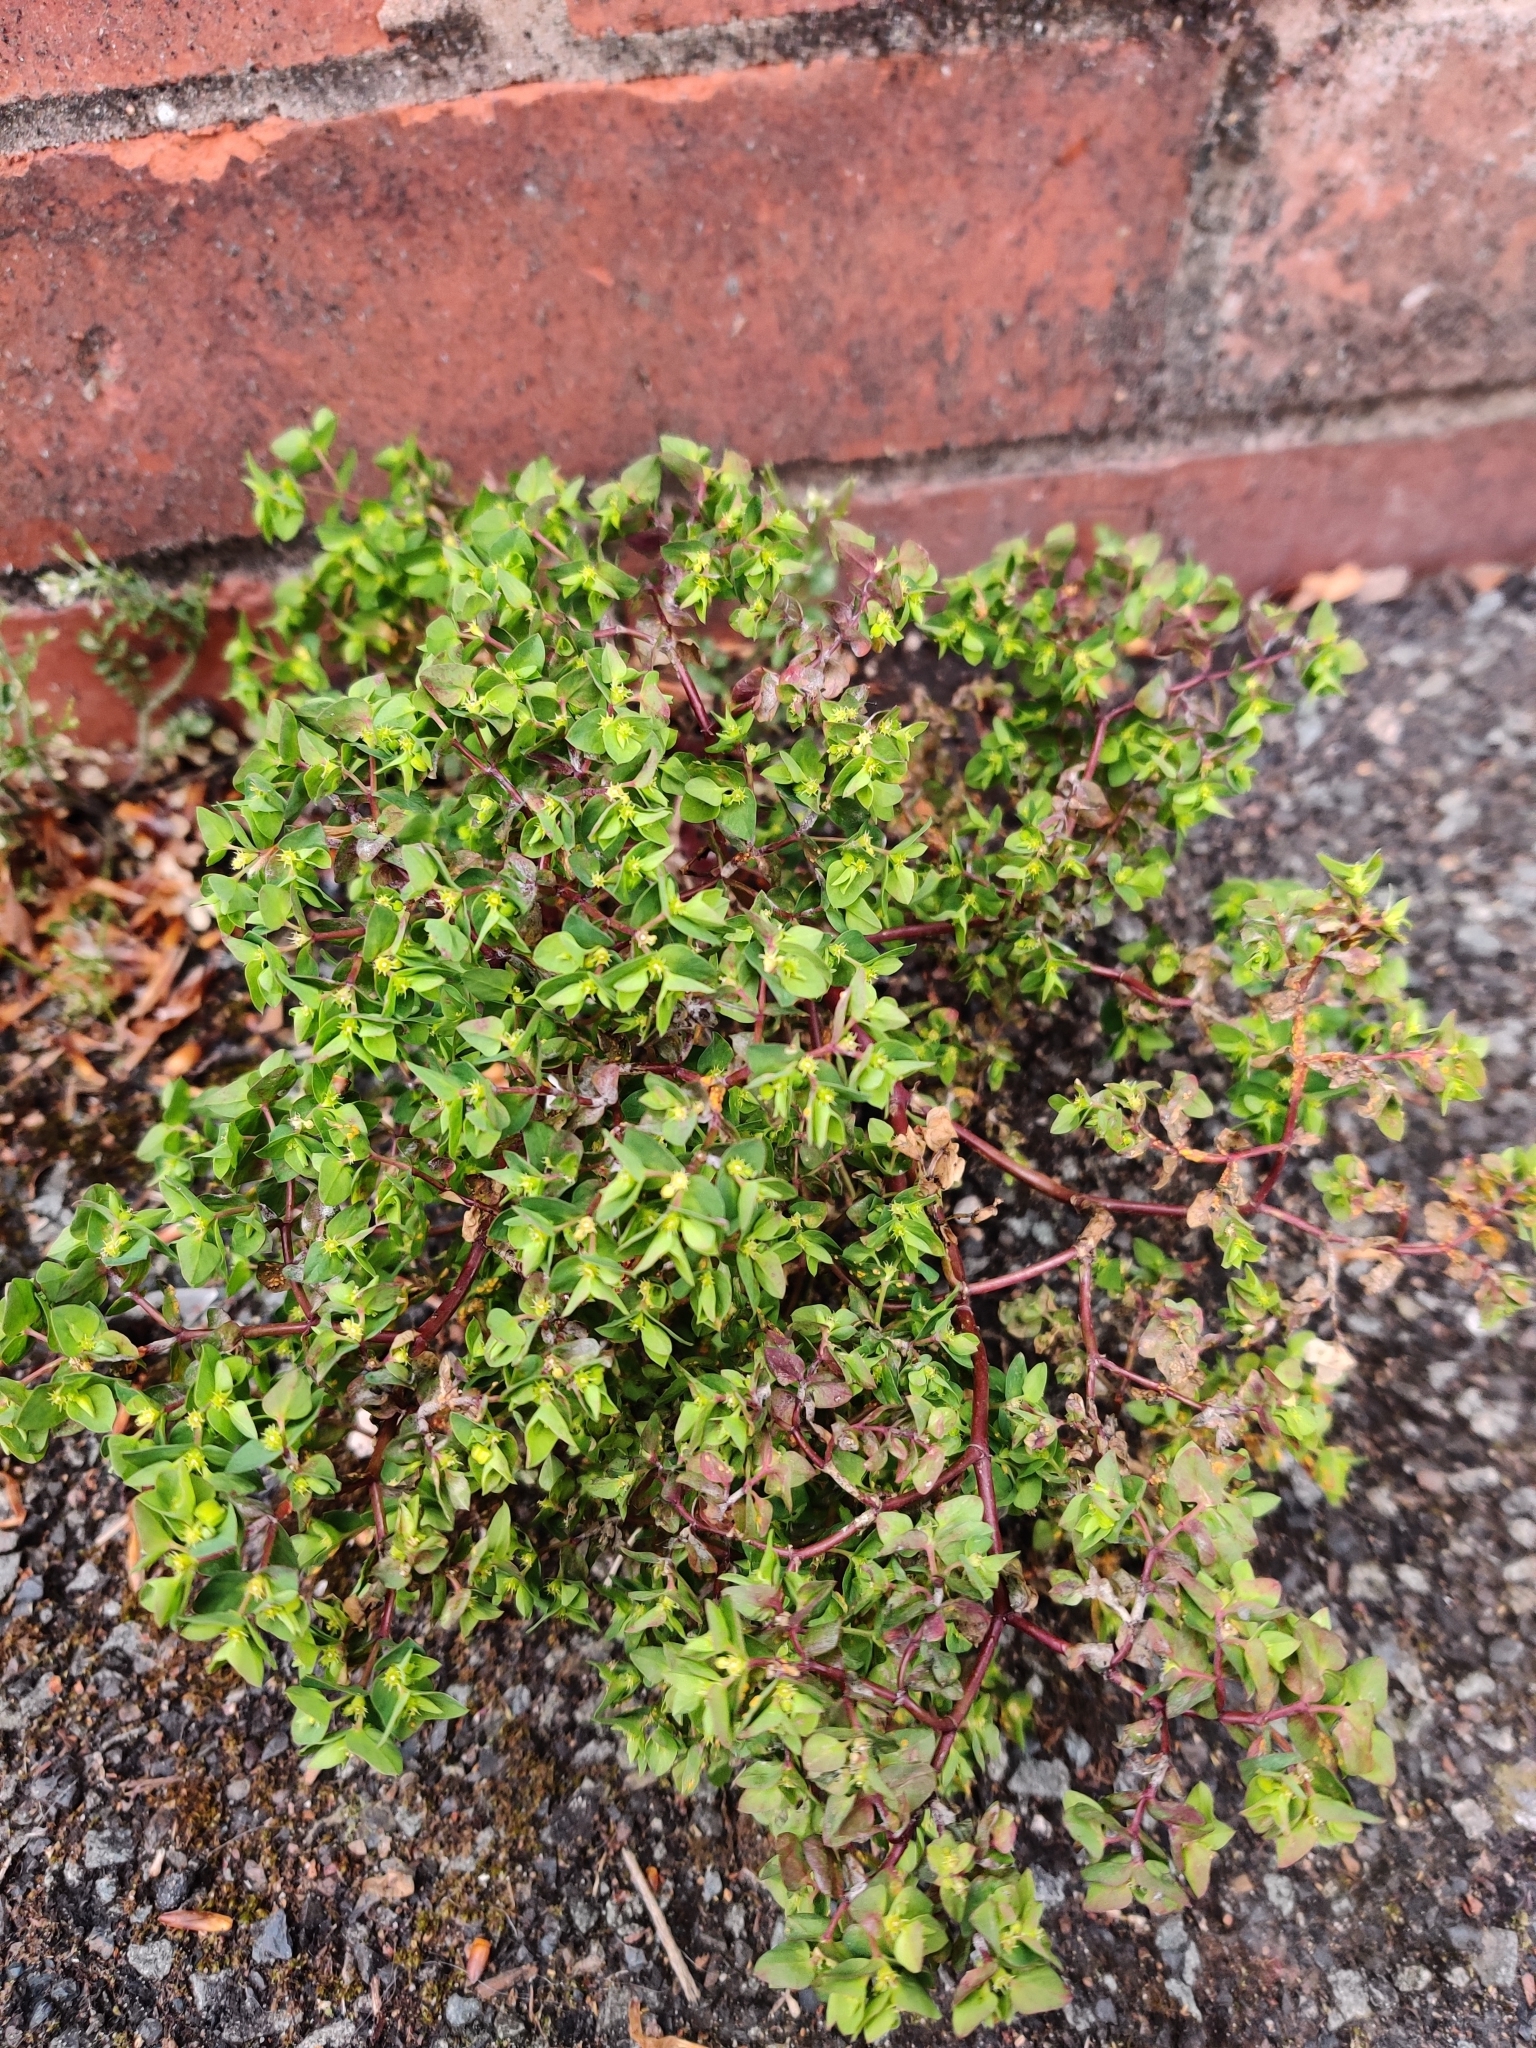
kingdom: Plantae
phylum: Tracheophyta
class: Magnoliopsida
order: Malpighiales
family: Euphorbiaceae
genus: Euphorbia
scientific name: Euphorbia peplus
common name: Petty spurge
